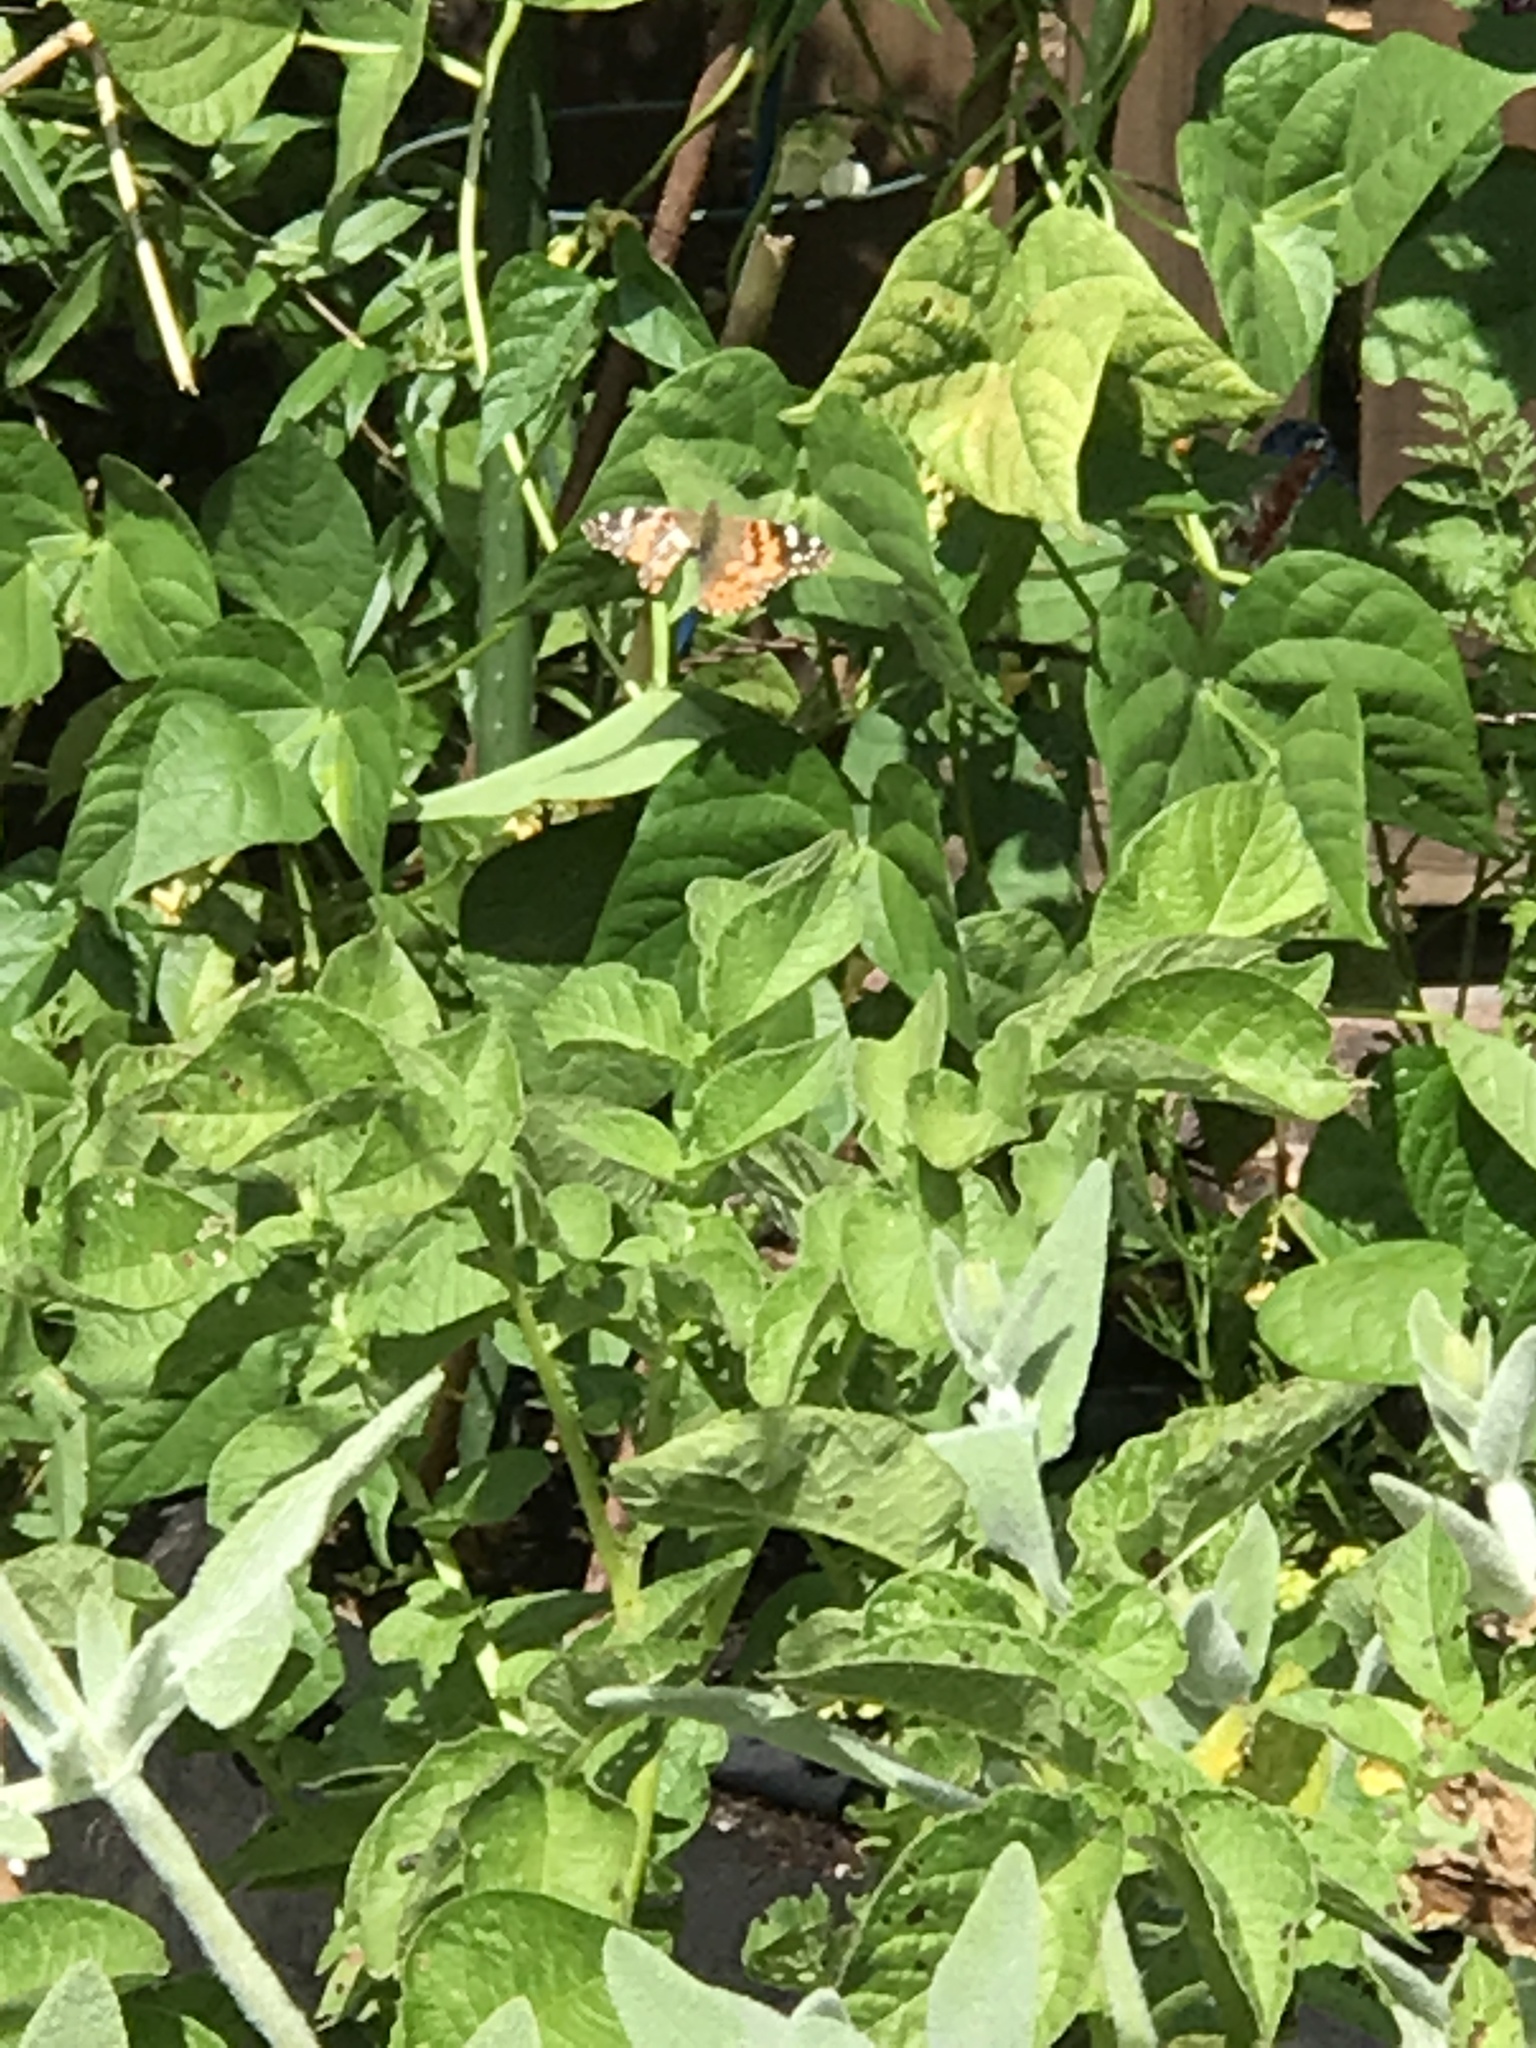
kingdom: Animalia
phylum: Arthropoda
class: Insecta
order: Lepidoptera
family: Nymphalidae
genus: Vanessa
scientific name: Vanessa cardui
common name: Painted lady
